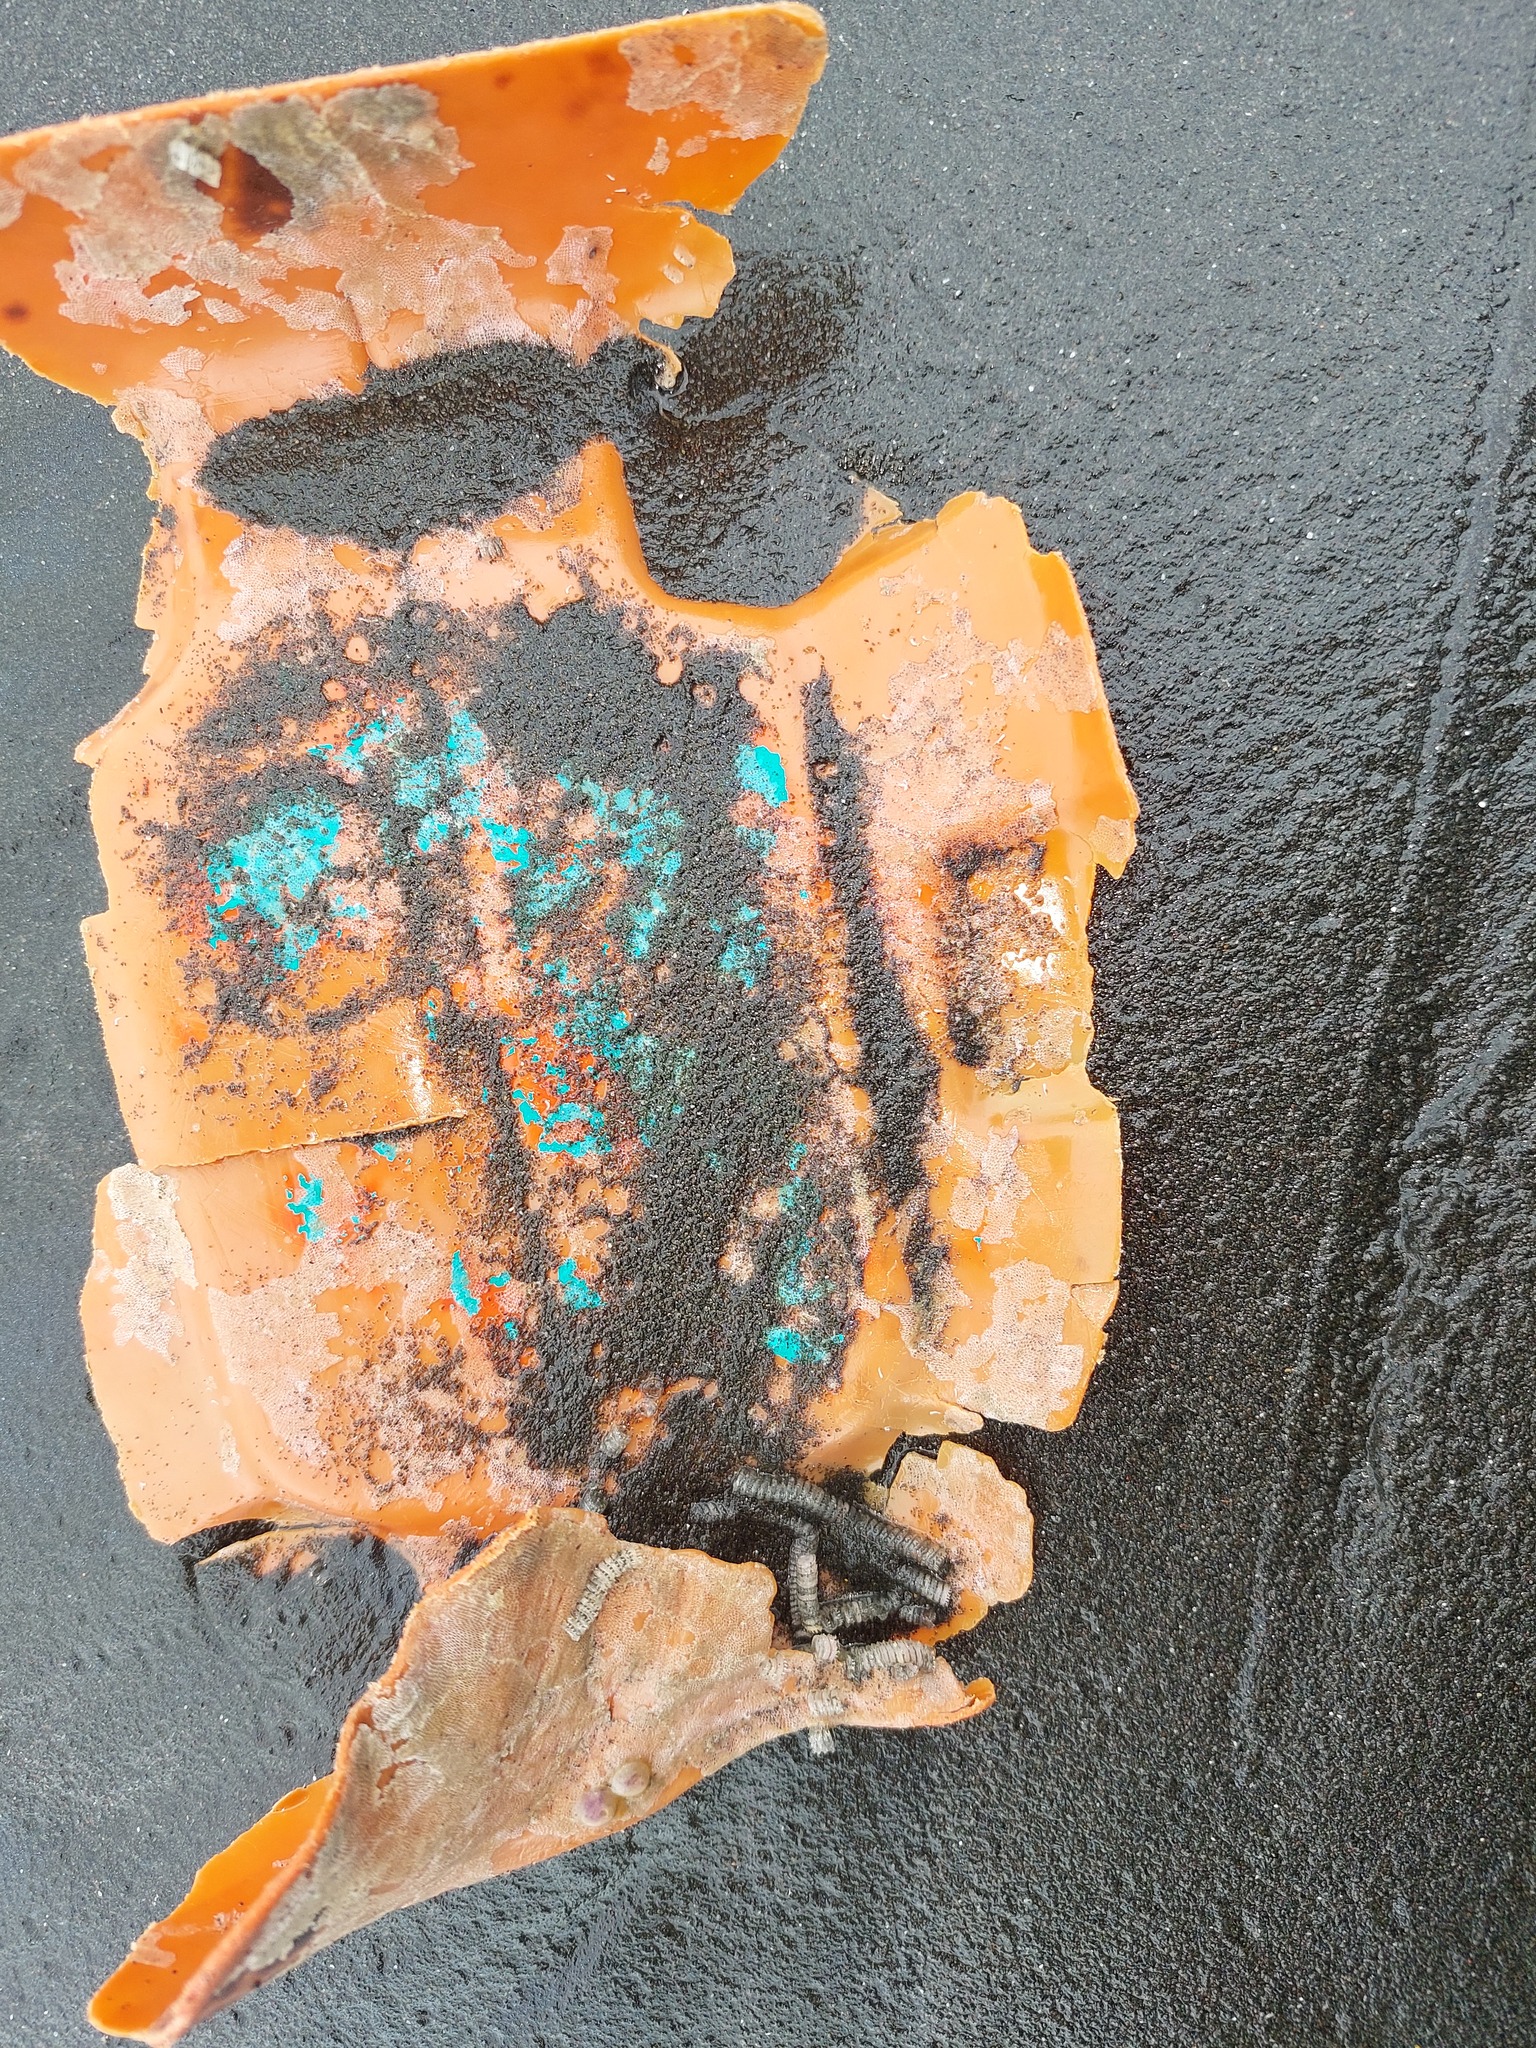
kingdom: Animalia
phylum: Mollusca
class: Gastropoda
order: Neogastropoda
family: Muricidae
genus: Zeatrophon
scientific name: Zeatrophon ambiguus
